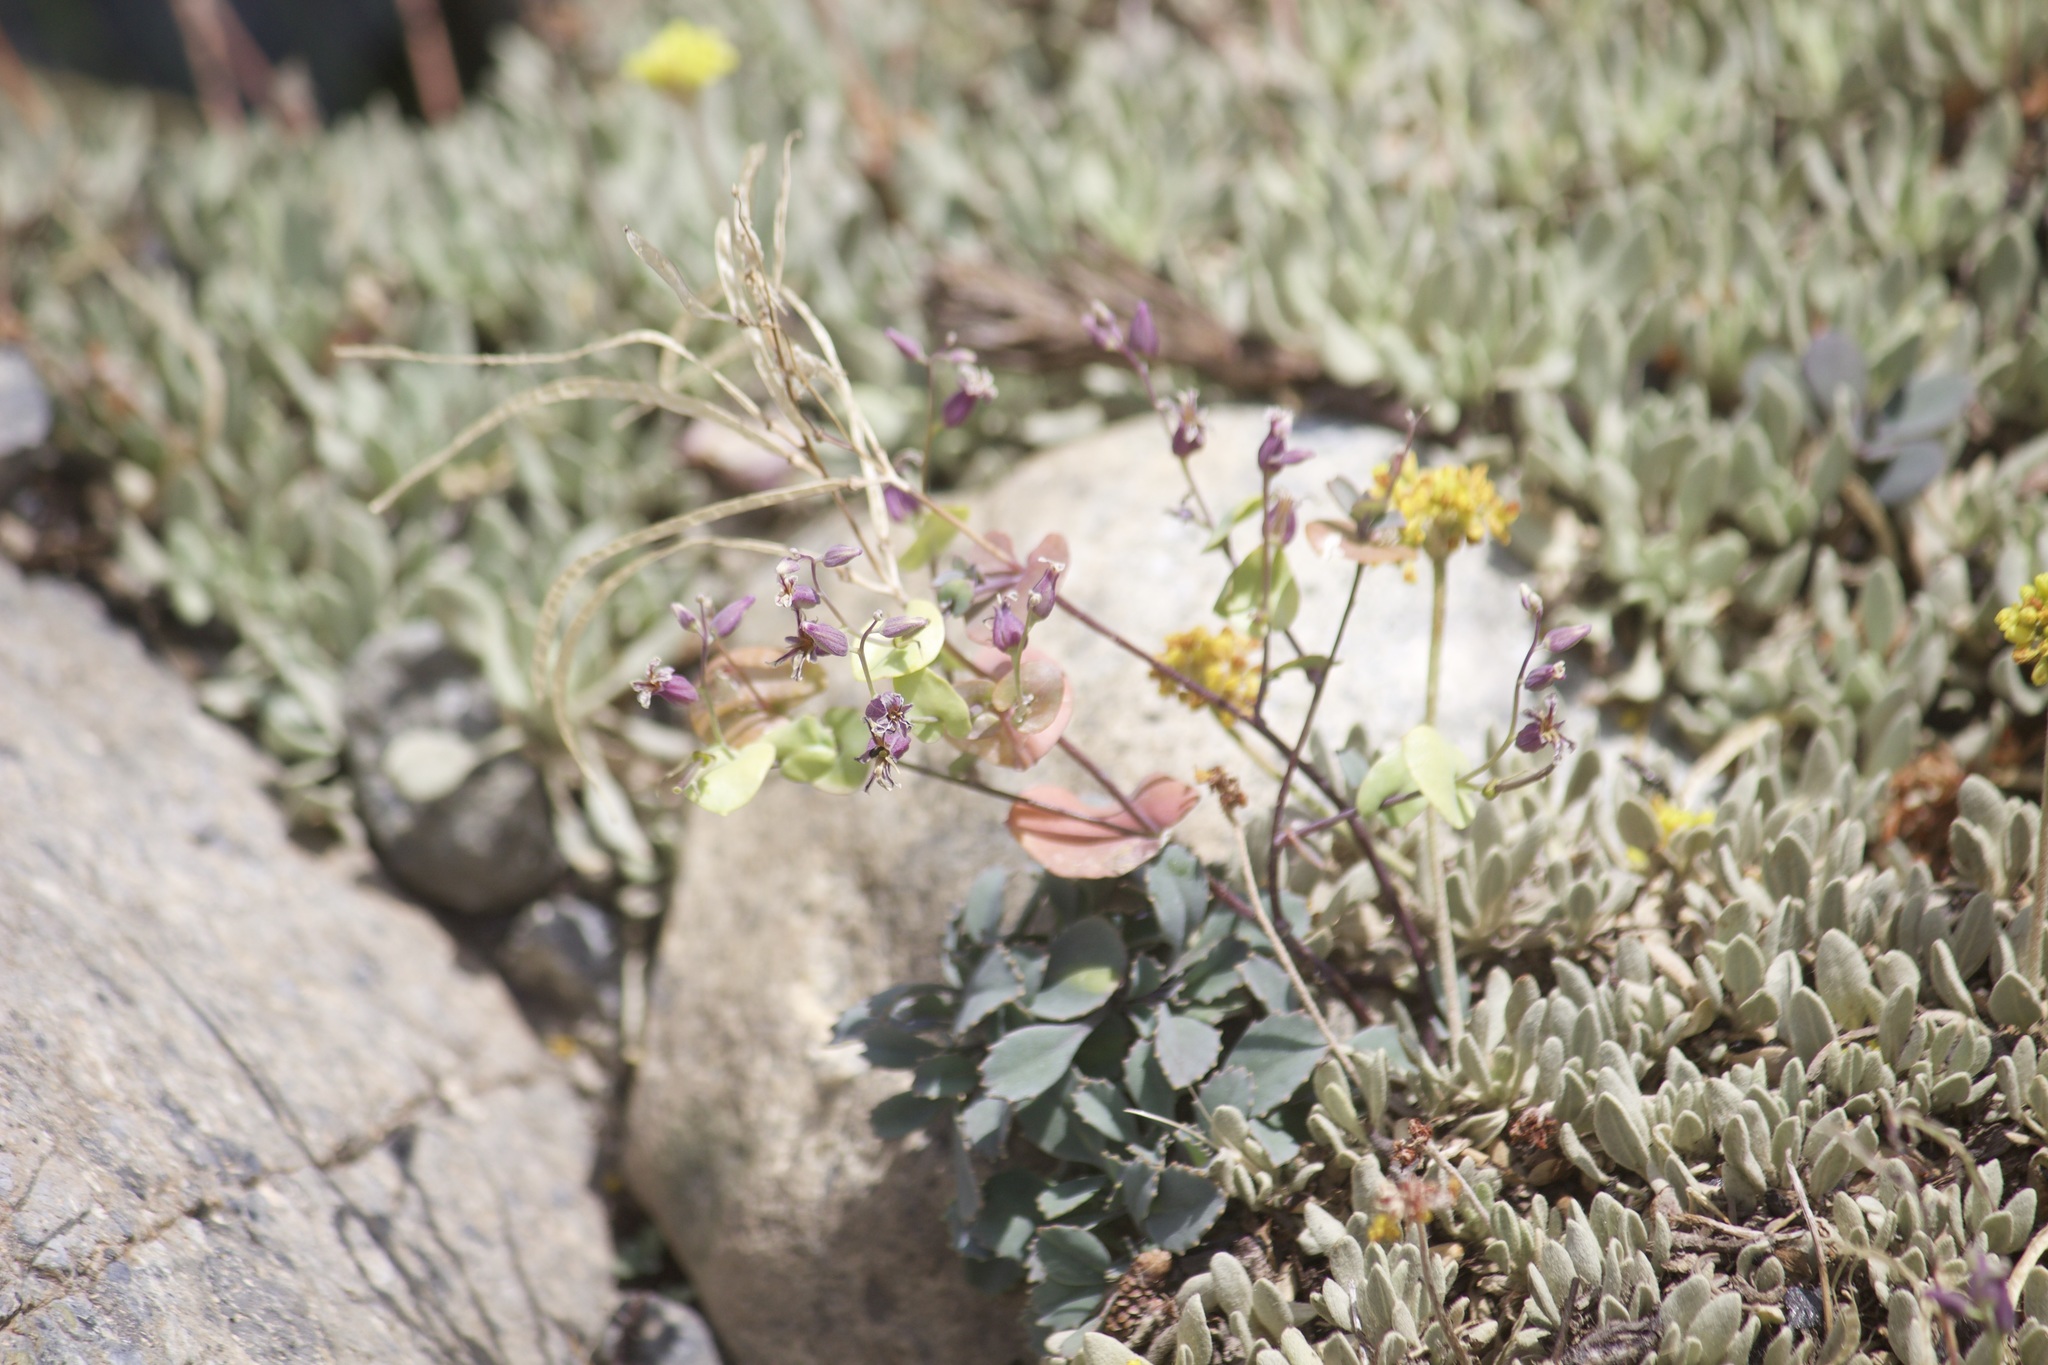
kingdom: Plantae
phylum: Tracheophyta
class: Magnoliopsida
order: Brassicales
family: Brassicaceae
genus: Streptanthus
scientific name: Streptanthus tortuosus
